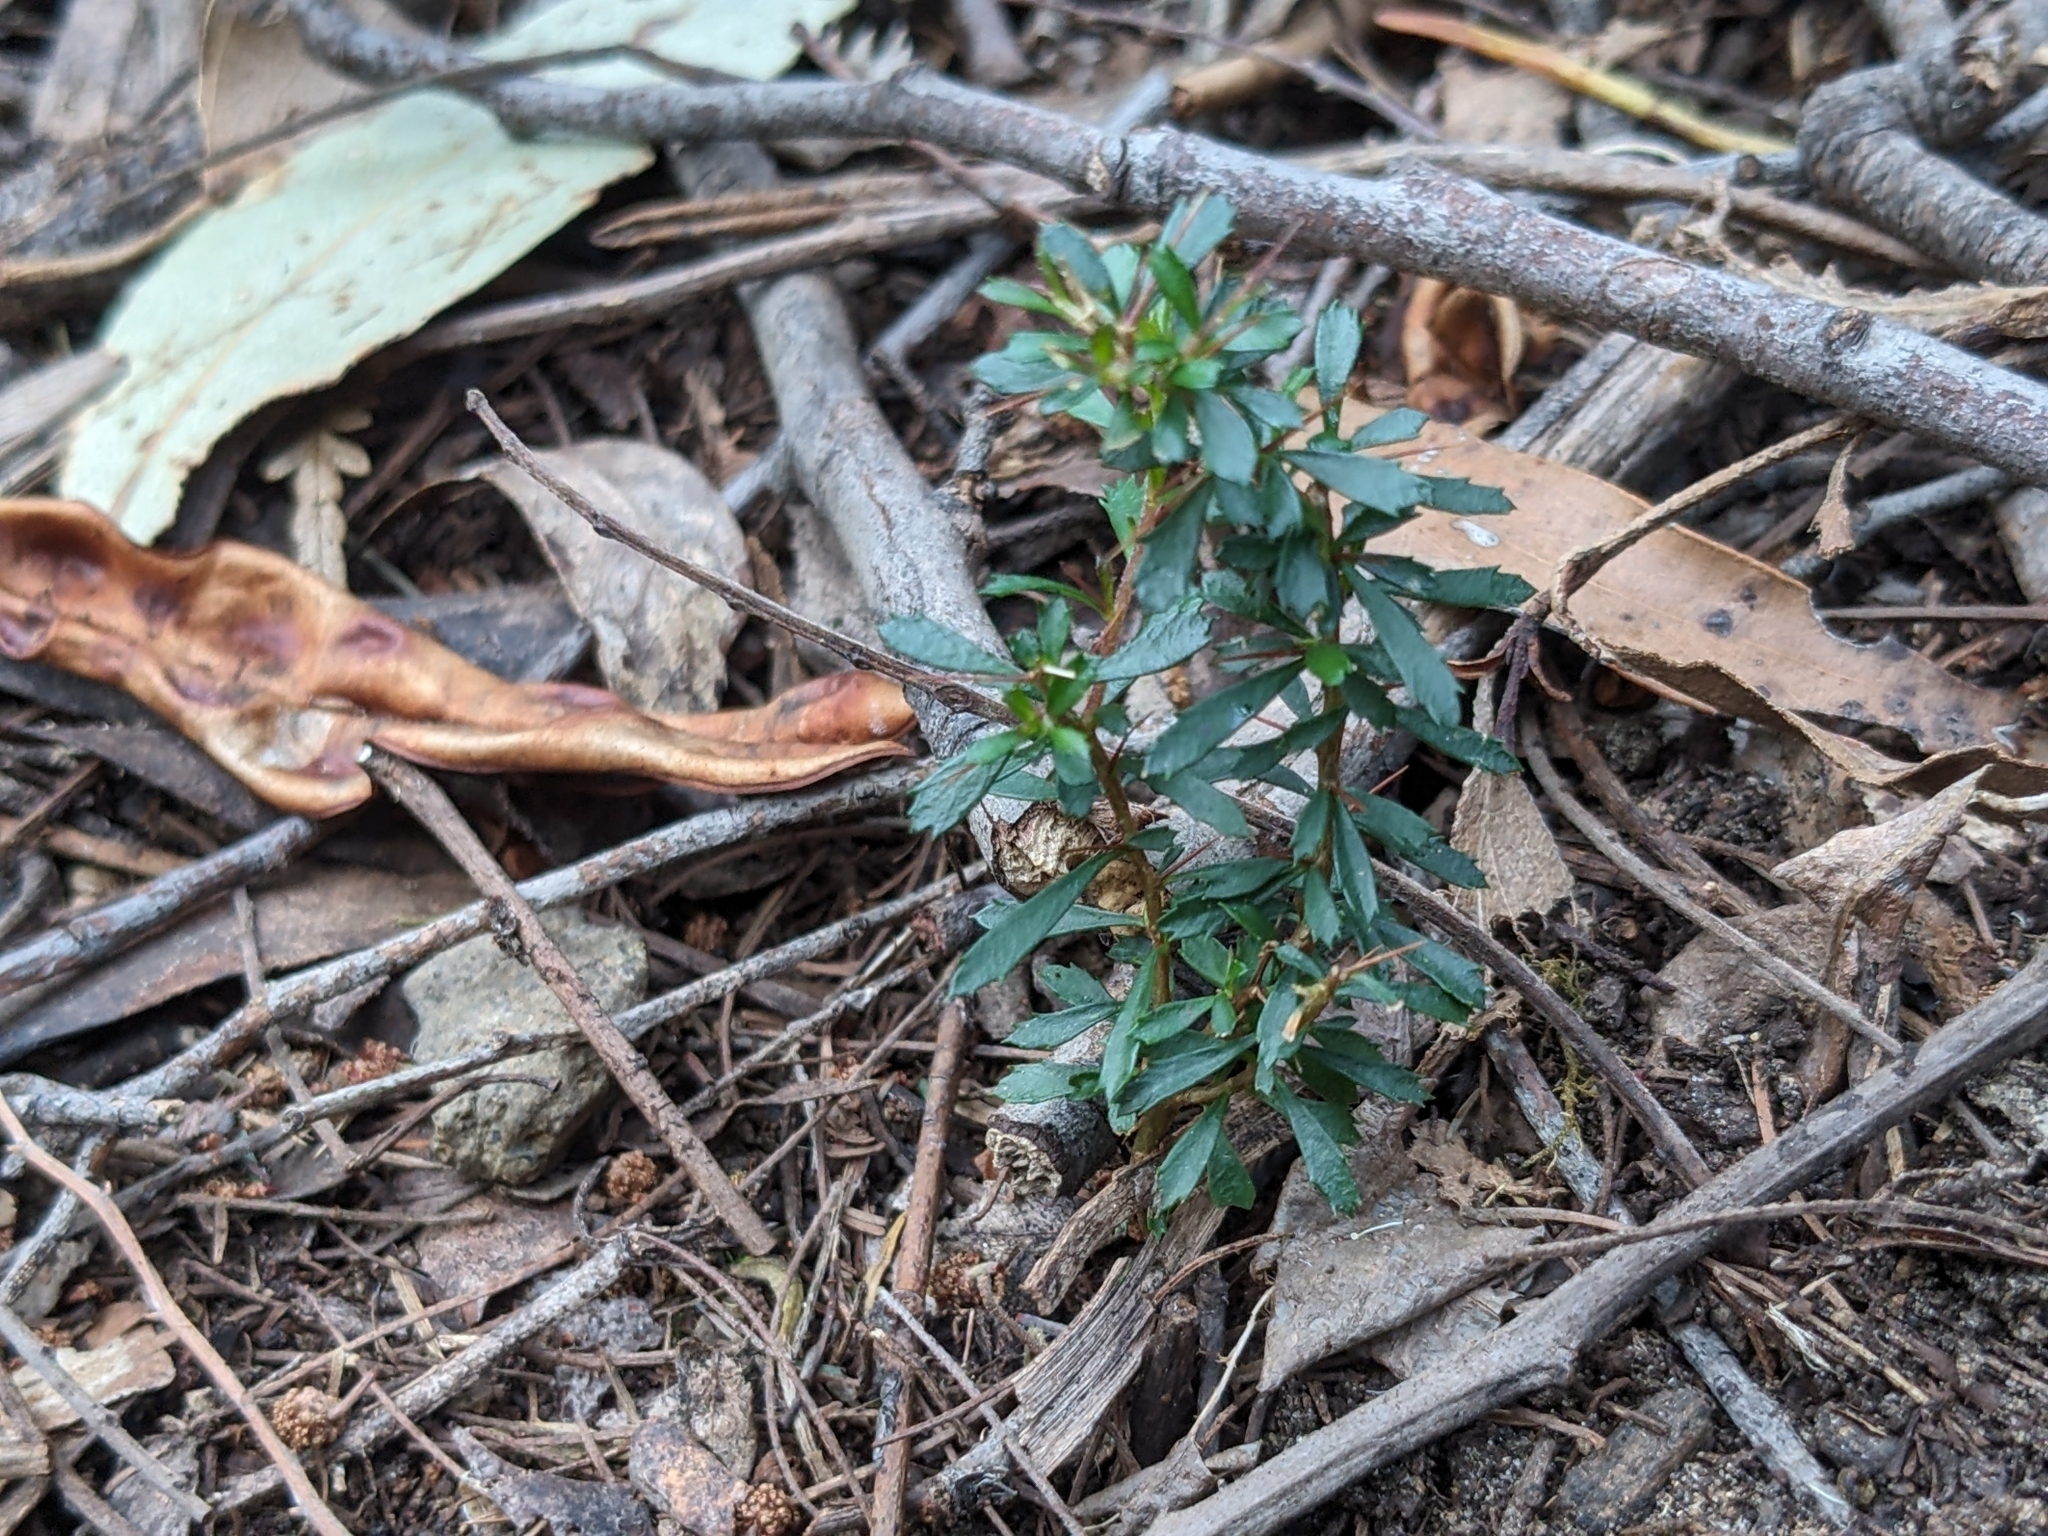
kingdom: Plantae
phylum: Tracheophyta
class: Magnoliopsida
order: Apiales
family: Pittosporaceae
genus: Bursaria
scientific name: Bursaria spinosa
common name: Australian blackthorn
